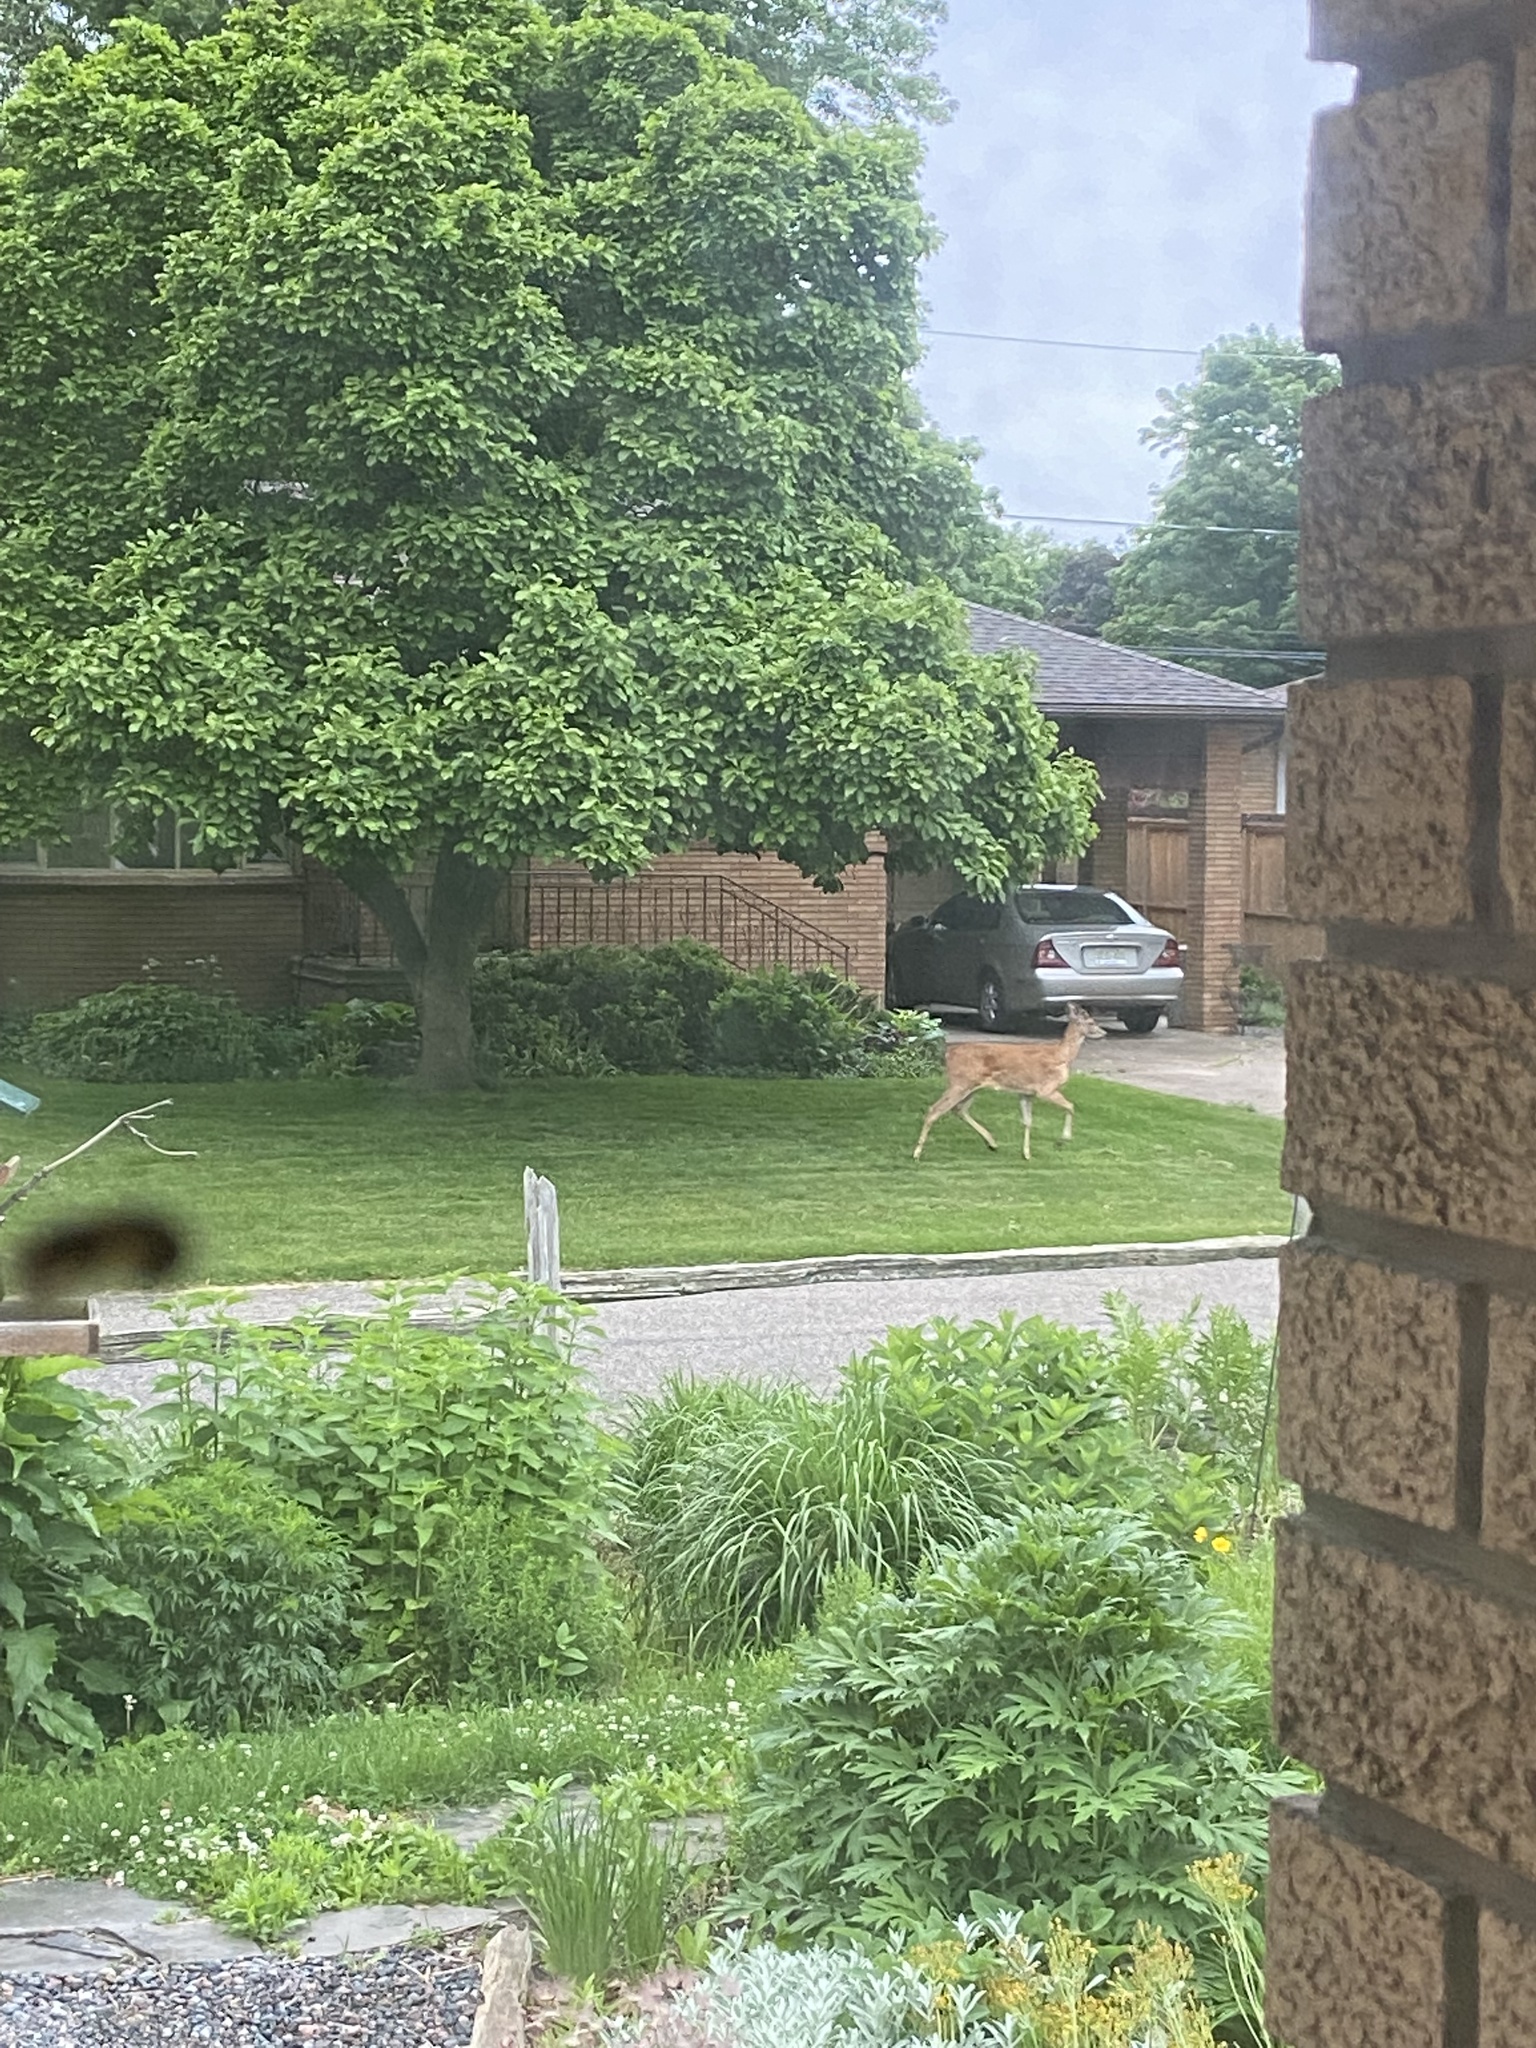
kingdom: Animalia
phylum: Chordata
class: Mammalia
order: Artiodactyla
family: Cervidae
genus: Odocoileus
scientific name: Odocoileus virginianus
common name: White-tailed deer
